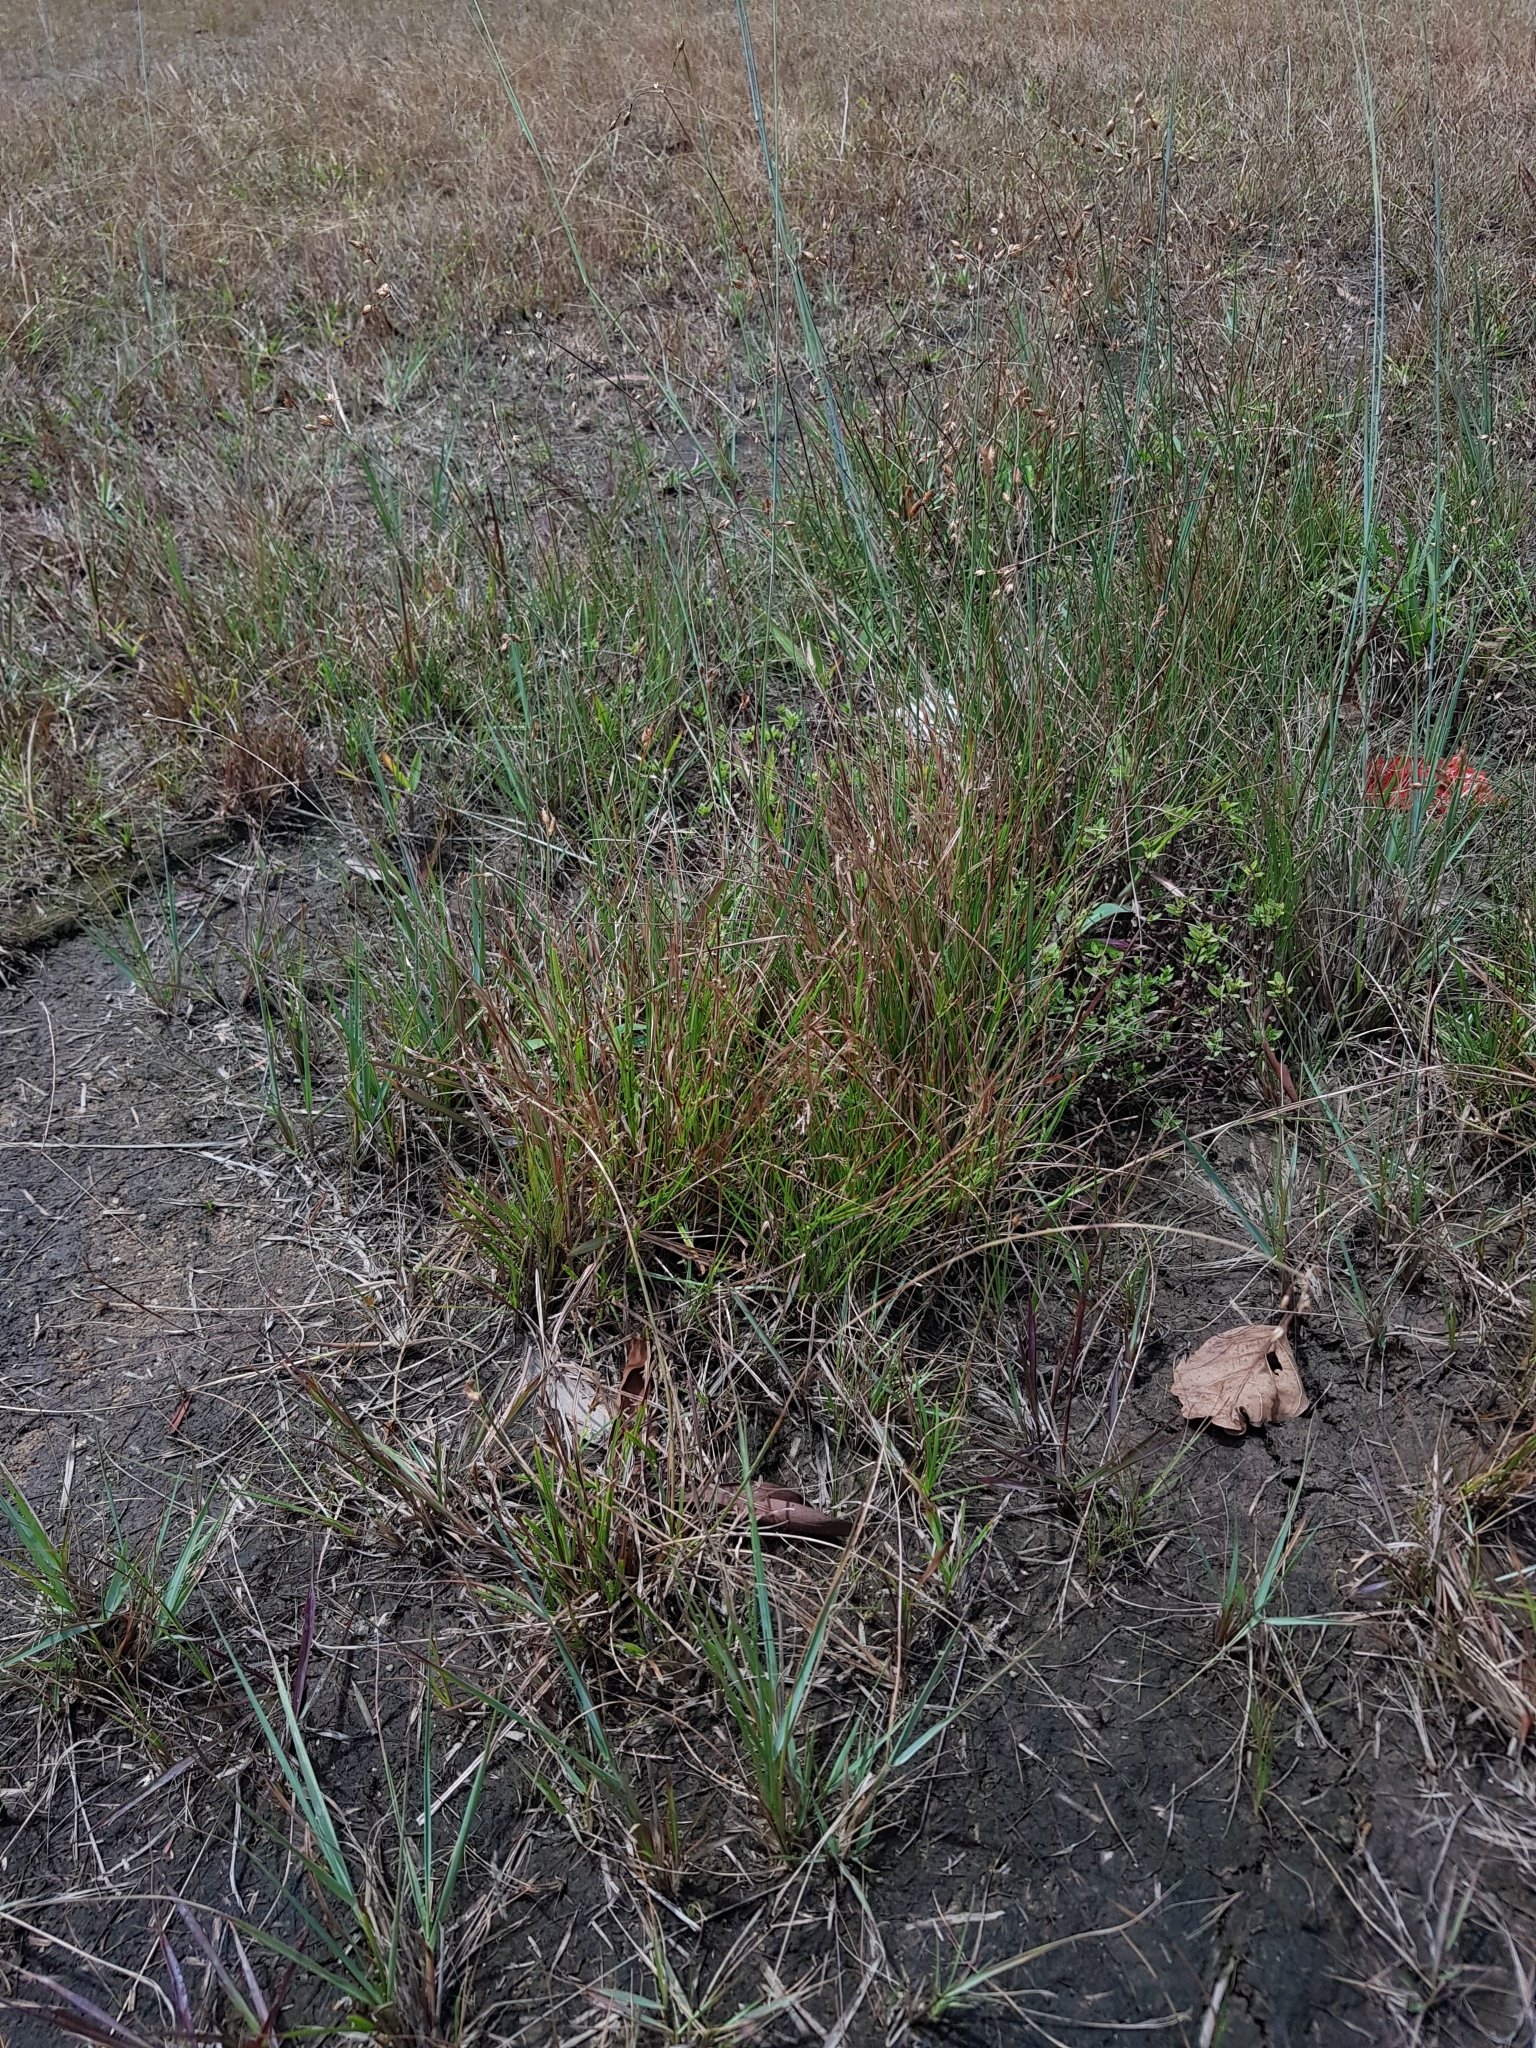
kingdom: Plantae
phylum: Tracheophyta
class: Liliopsida
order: Poales
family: Cyperaceae
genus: Scleria
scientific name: Scleria rugosa
